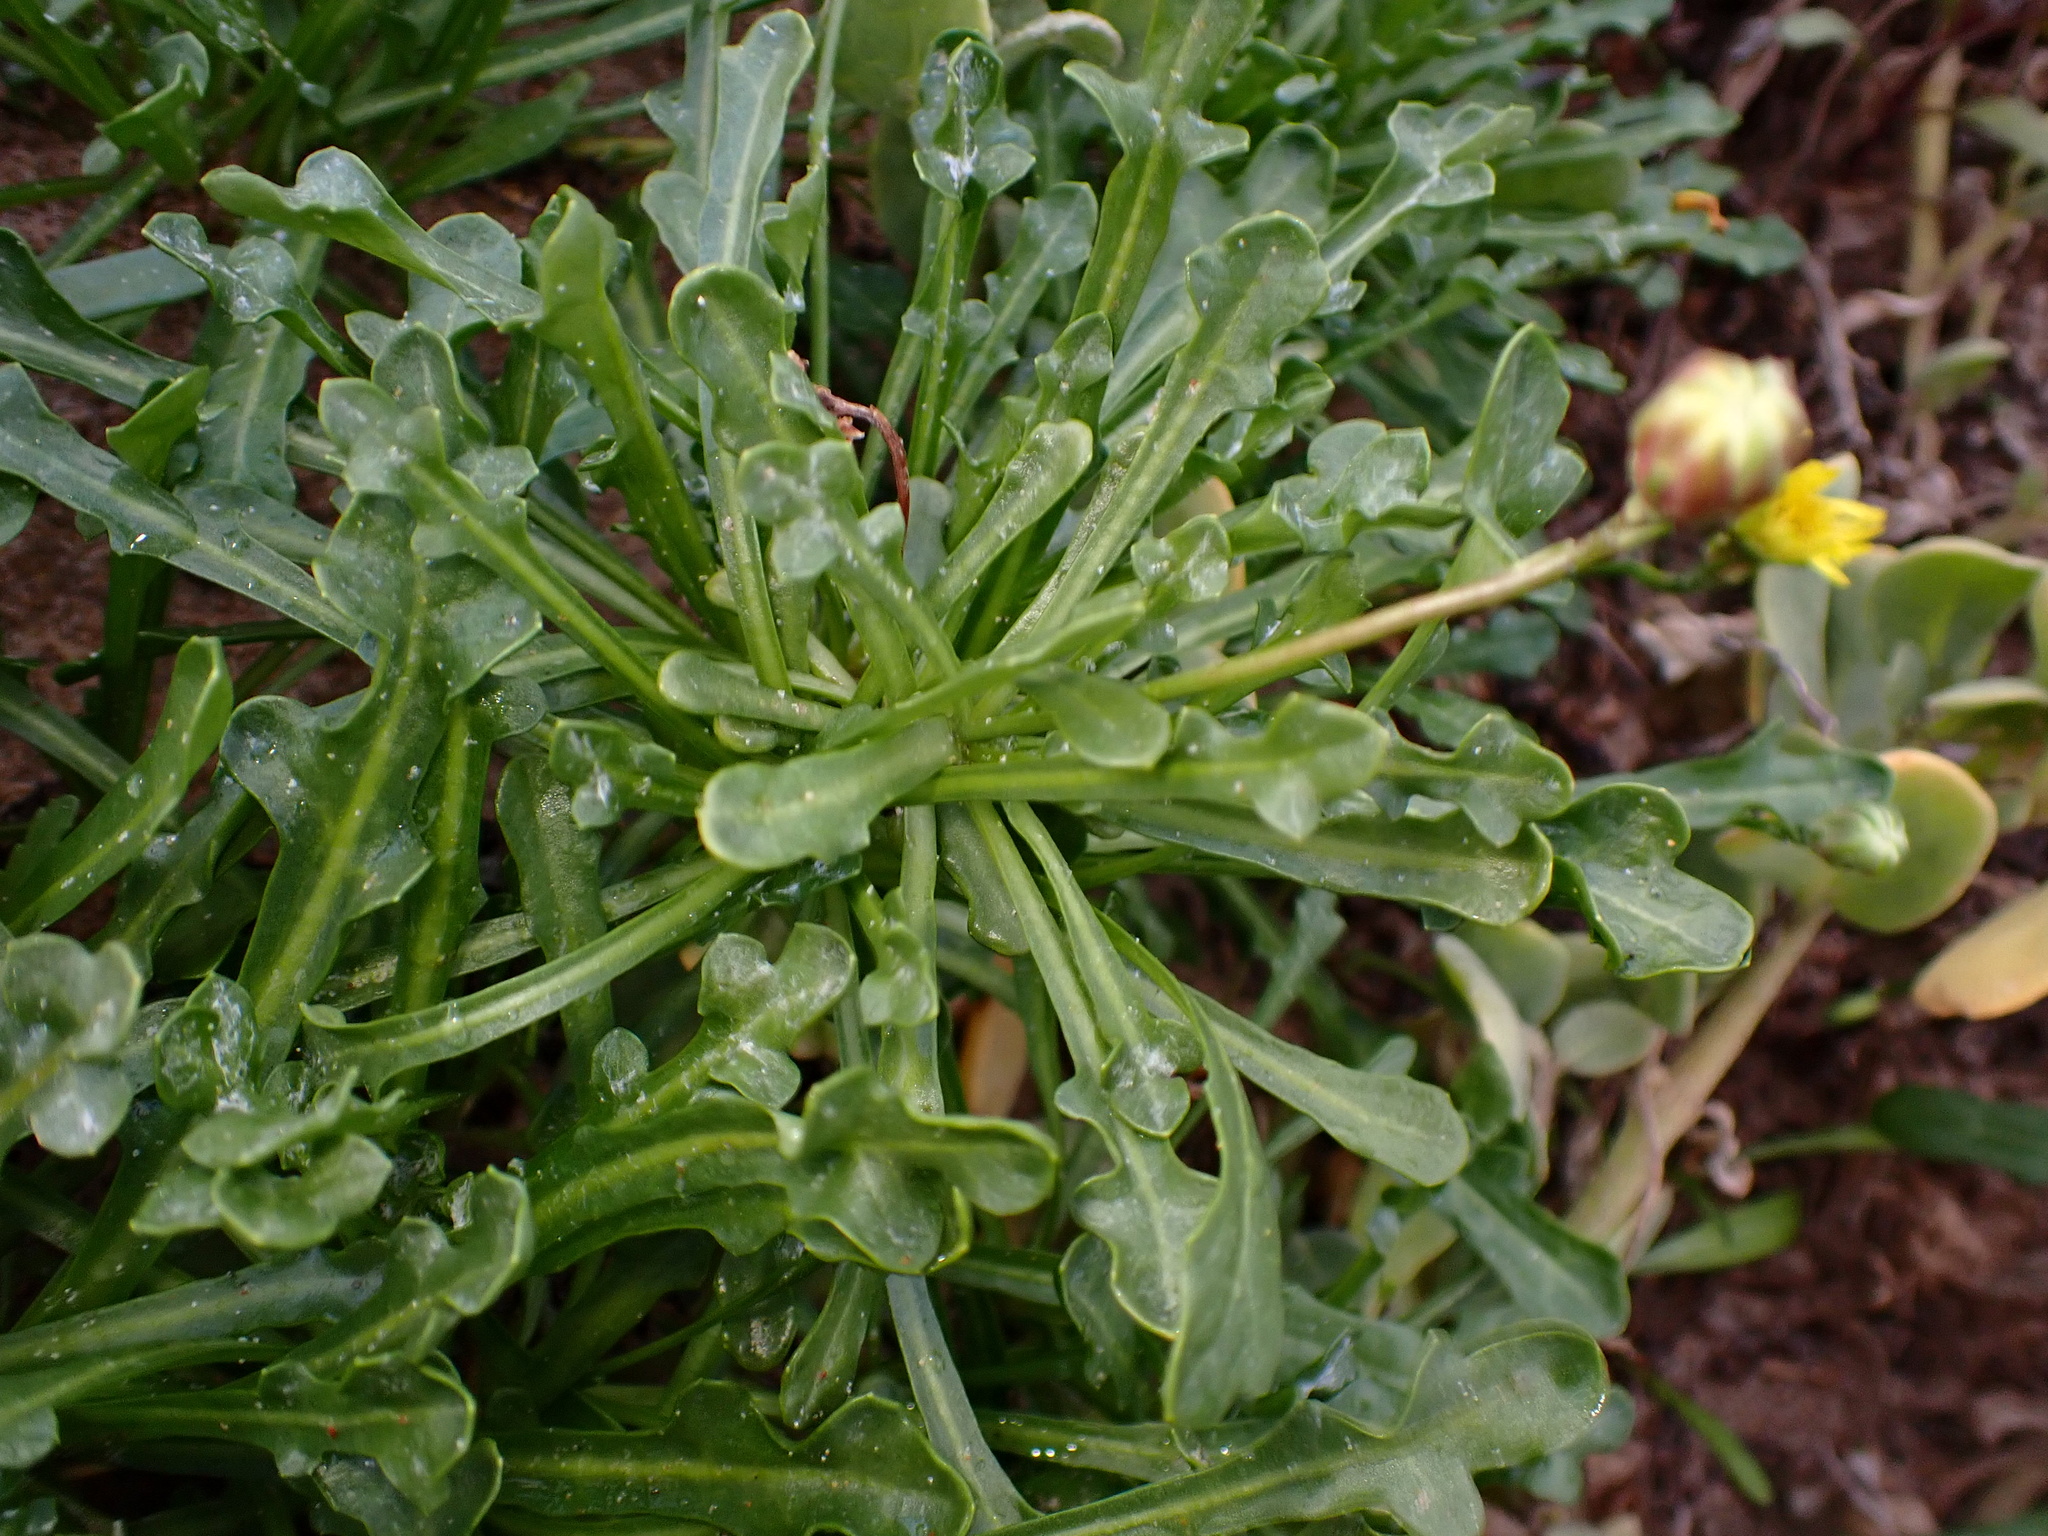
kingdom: Plantae
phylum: Tracheophyta
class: Magnoliopsida
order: Asterales
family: Asteraceae
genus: Malacothrix
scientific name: Malacothrix incana
